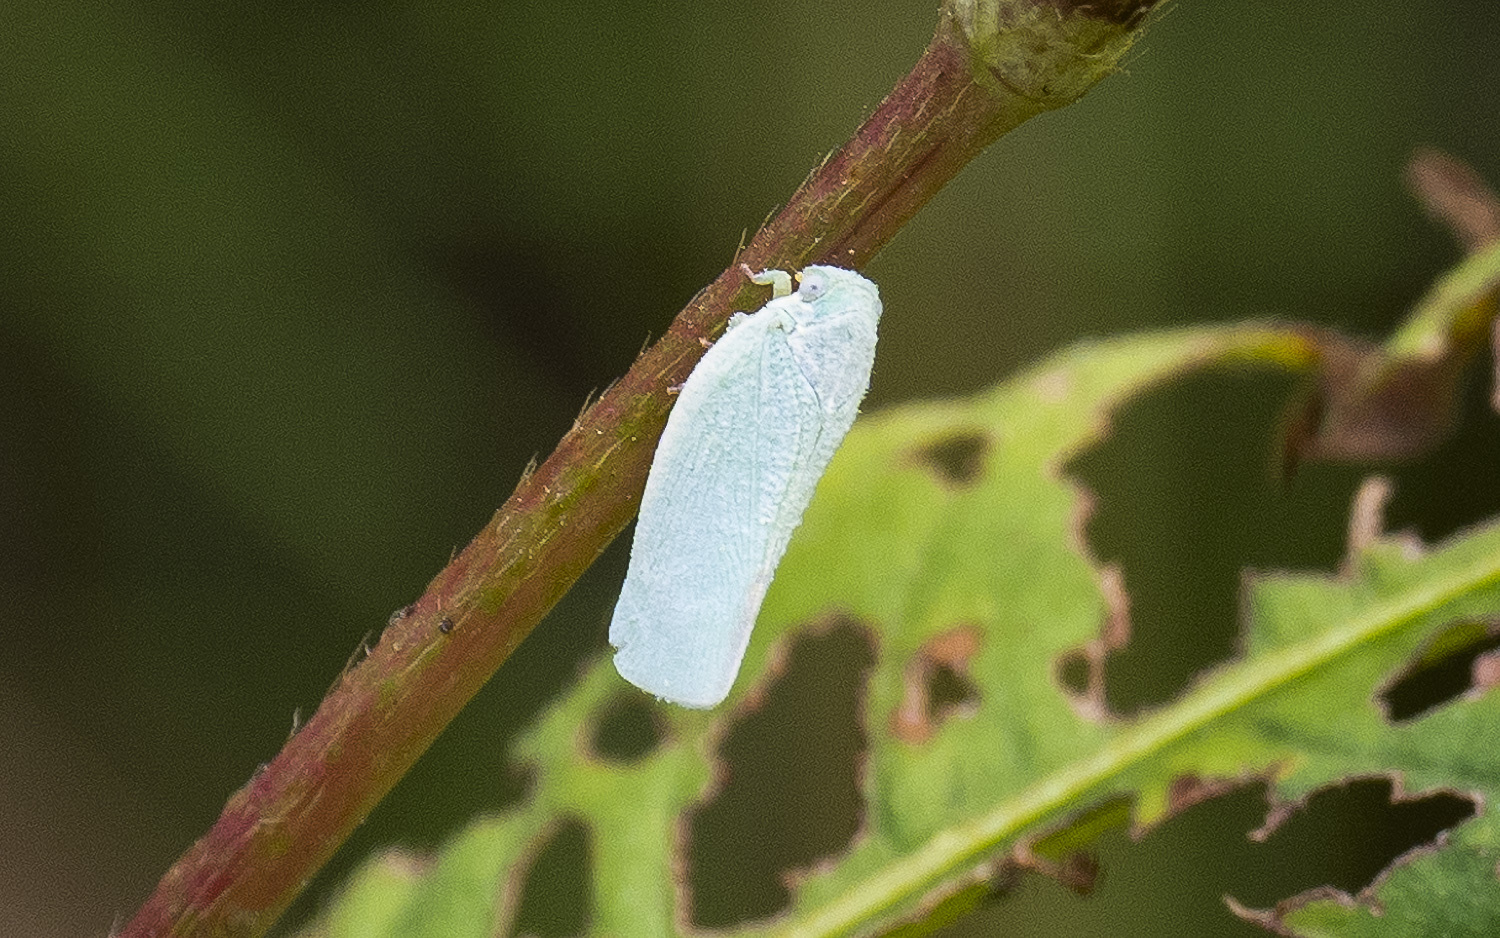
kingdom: Animalia
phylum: Arthropoda
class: Insecta
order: Hemiptera
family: Flatidae
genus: Flatormenis
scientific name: Flatormenis proxima
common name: Northern flatid planthopper
